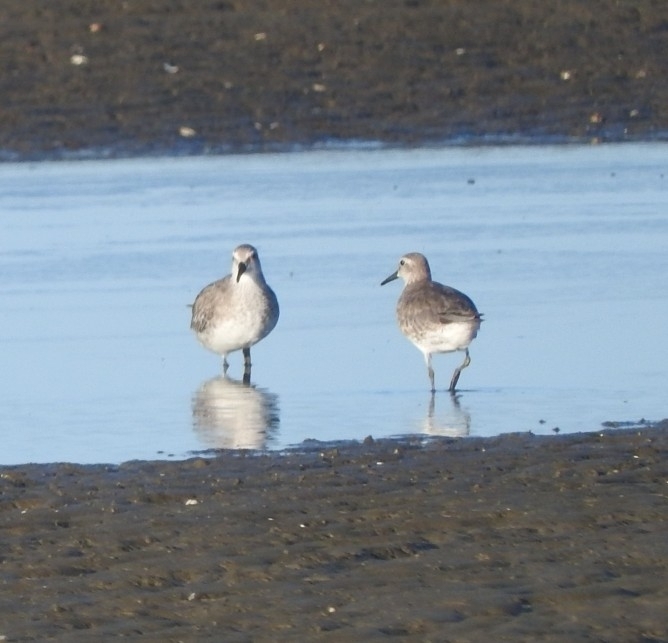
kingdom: Animalia
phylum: Chordata
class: Aves
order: Charadriiformes
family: Scolopacidae
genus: Calidris
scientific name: Calidris canutus
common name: Red knot
